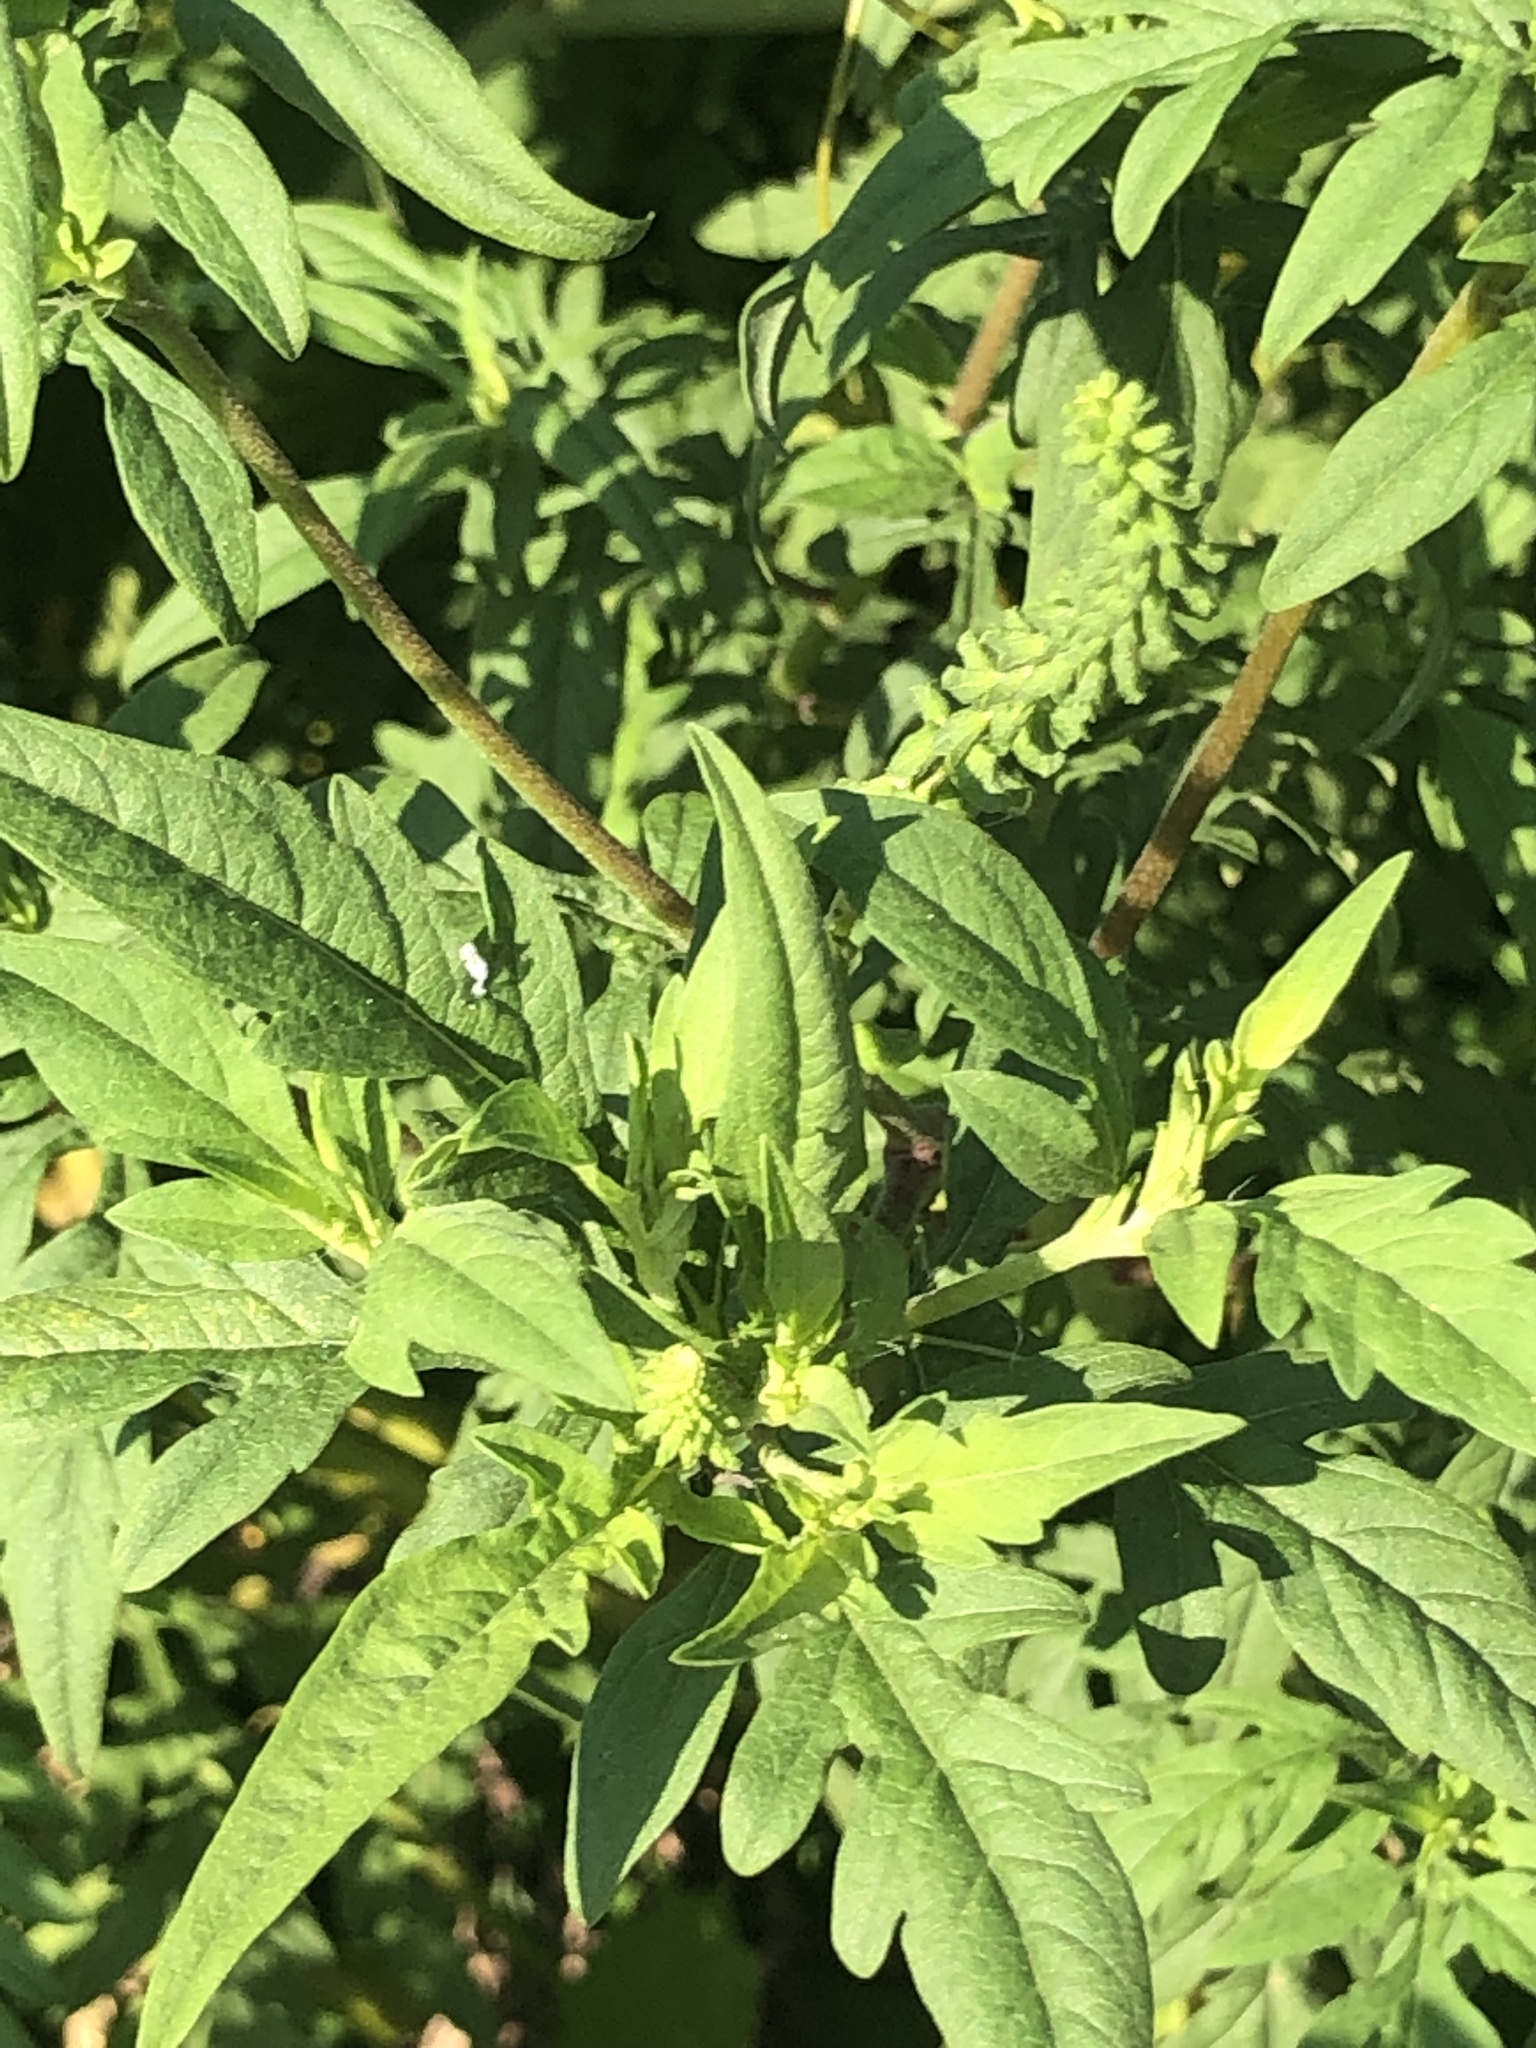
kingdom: Plantae
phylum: Tracheophyta
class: Magnoliopsida
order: Asterales
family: Asteraceae
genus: Ambrosia
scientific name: Ambrosia artemisiifolia
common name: Annual ragweed
